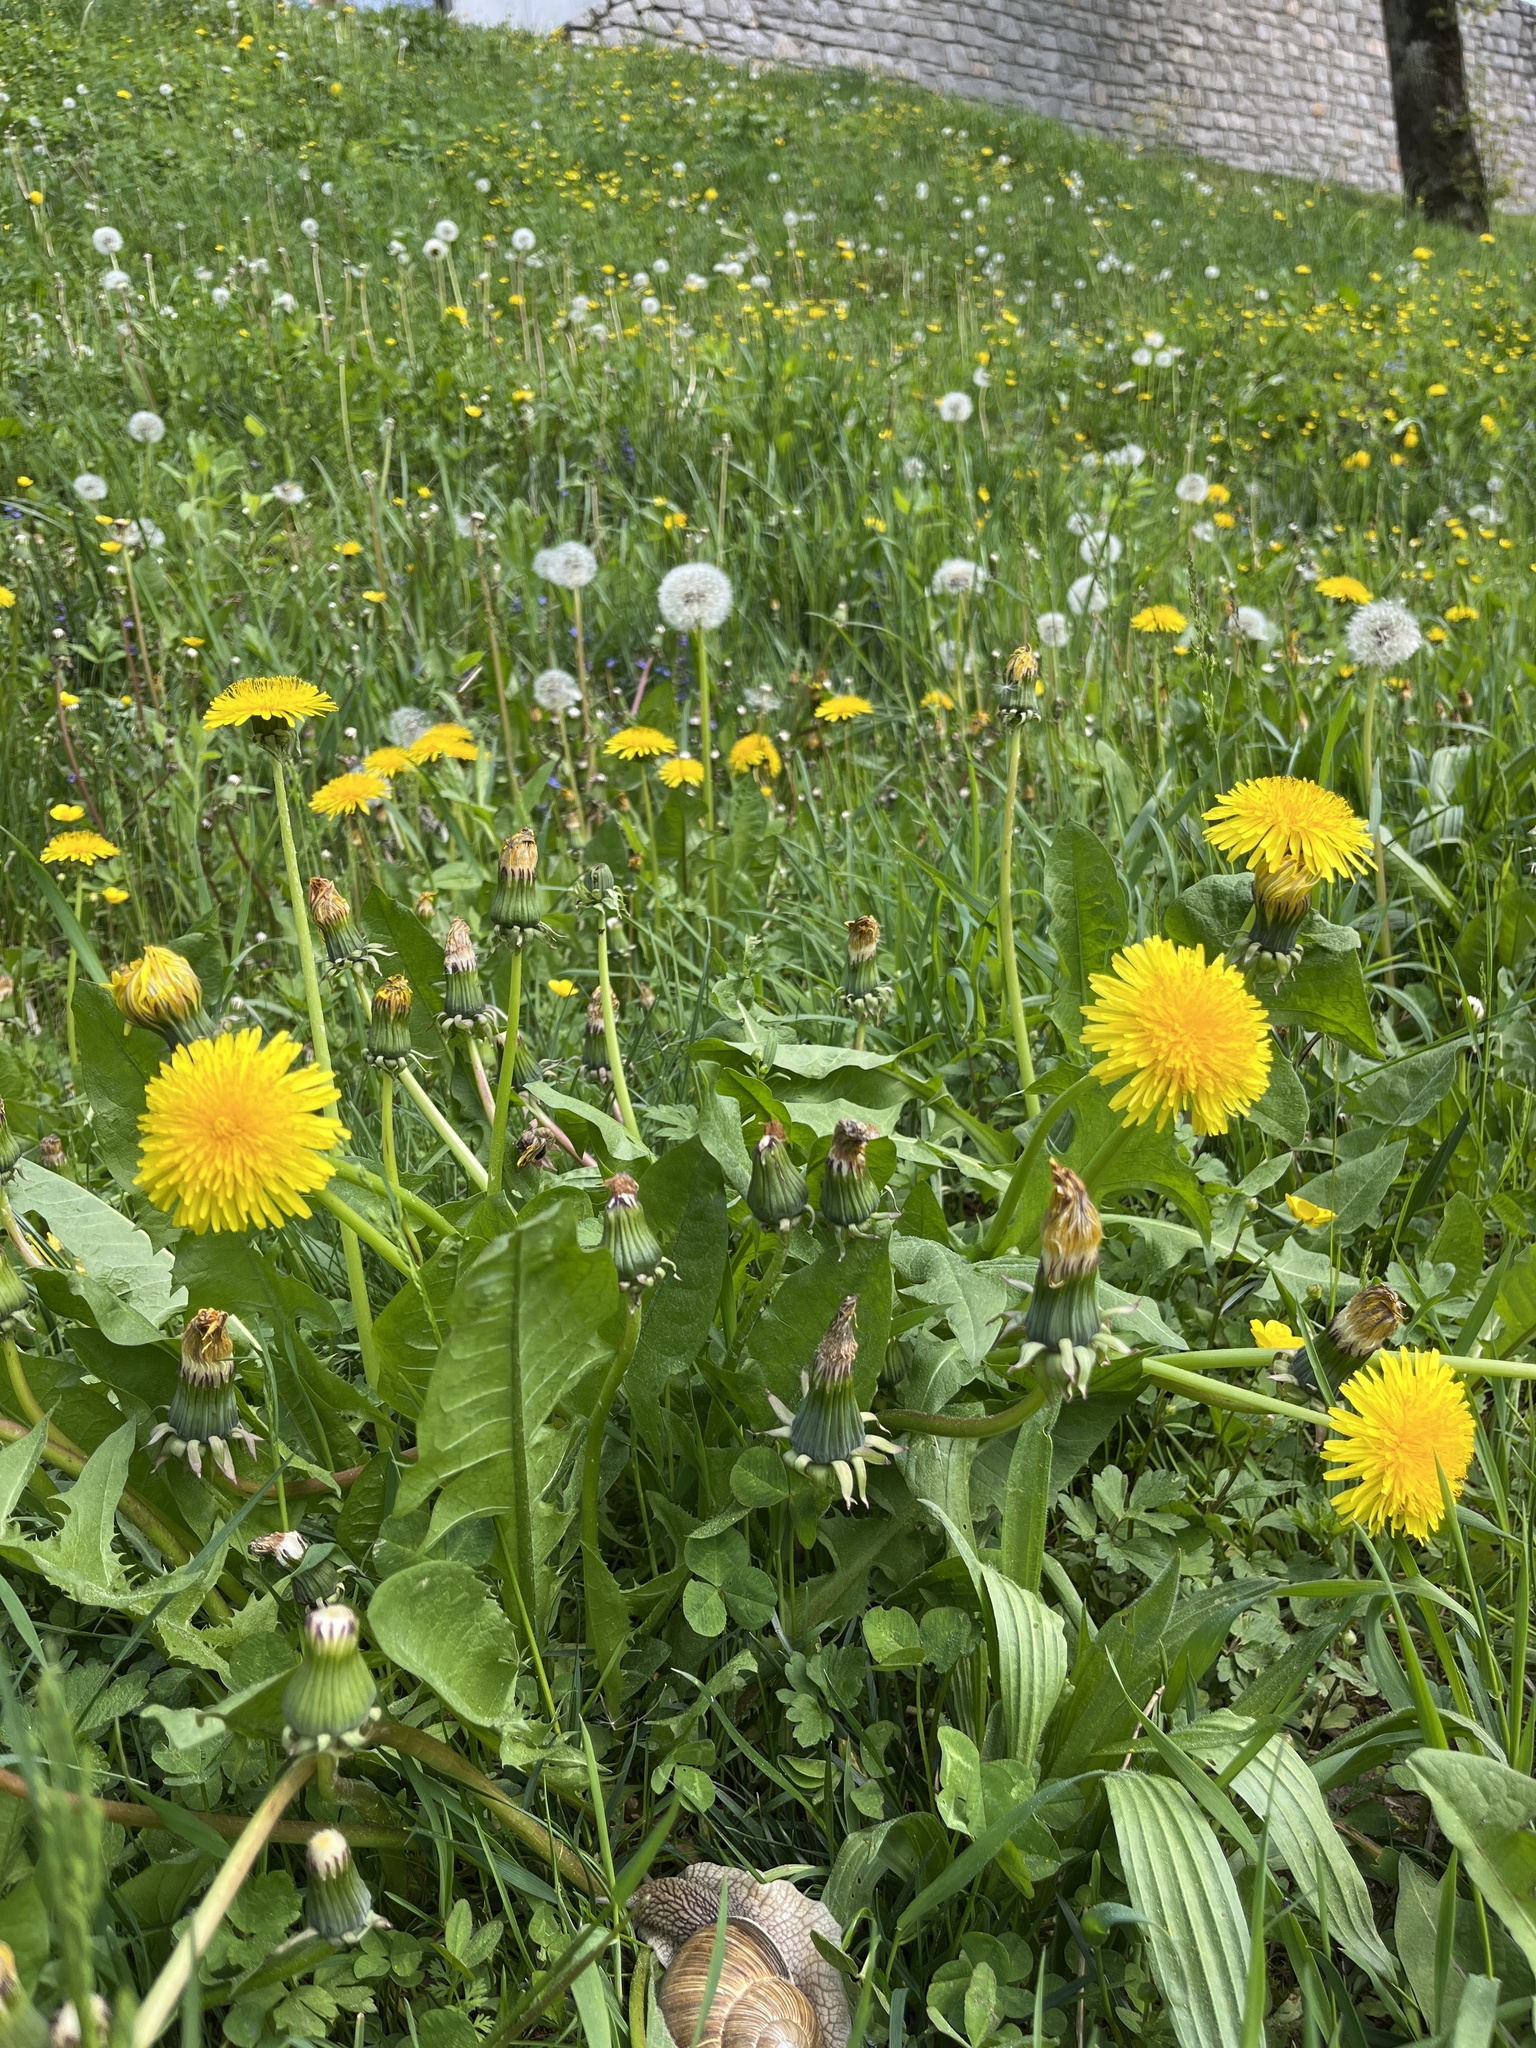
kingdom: Plantae
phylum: Tracheophyta
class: Magnoliopsida
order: Asterales
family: Asteraceae
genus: Taraxacum
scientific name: Taraxacum officinale
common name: Common dandelion
